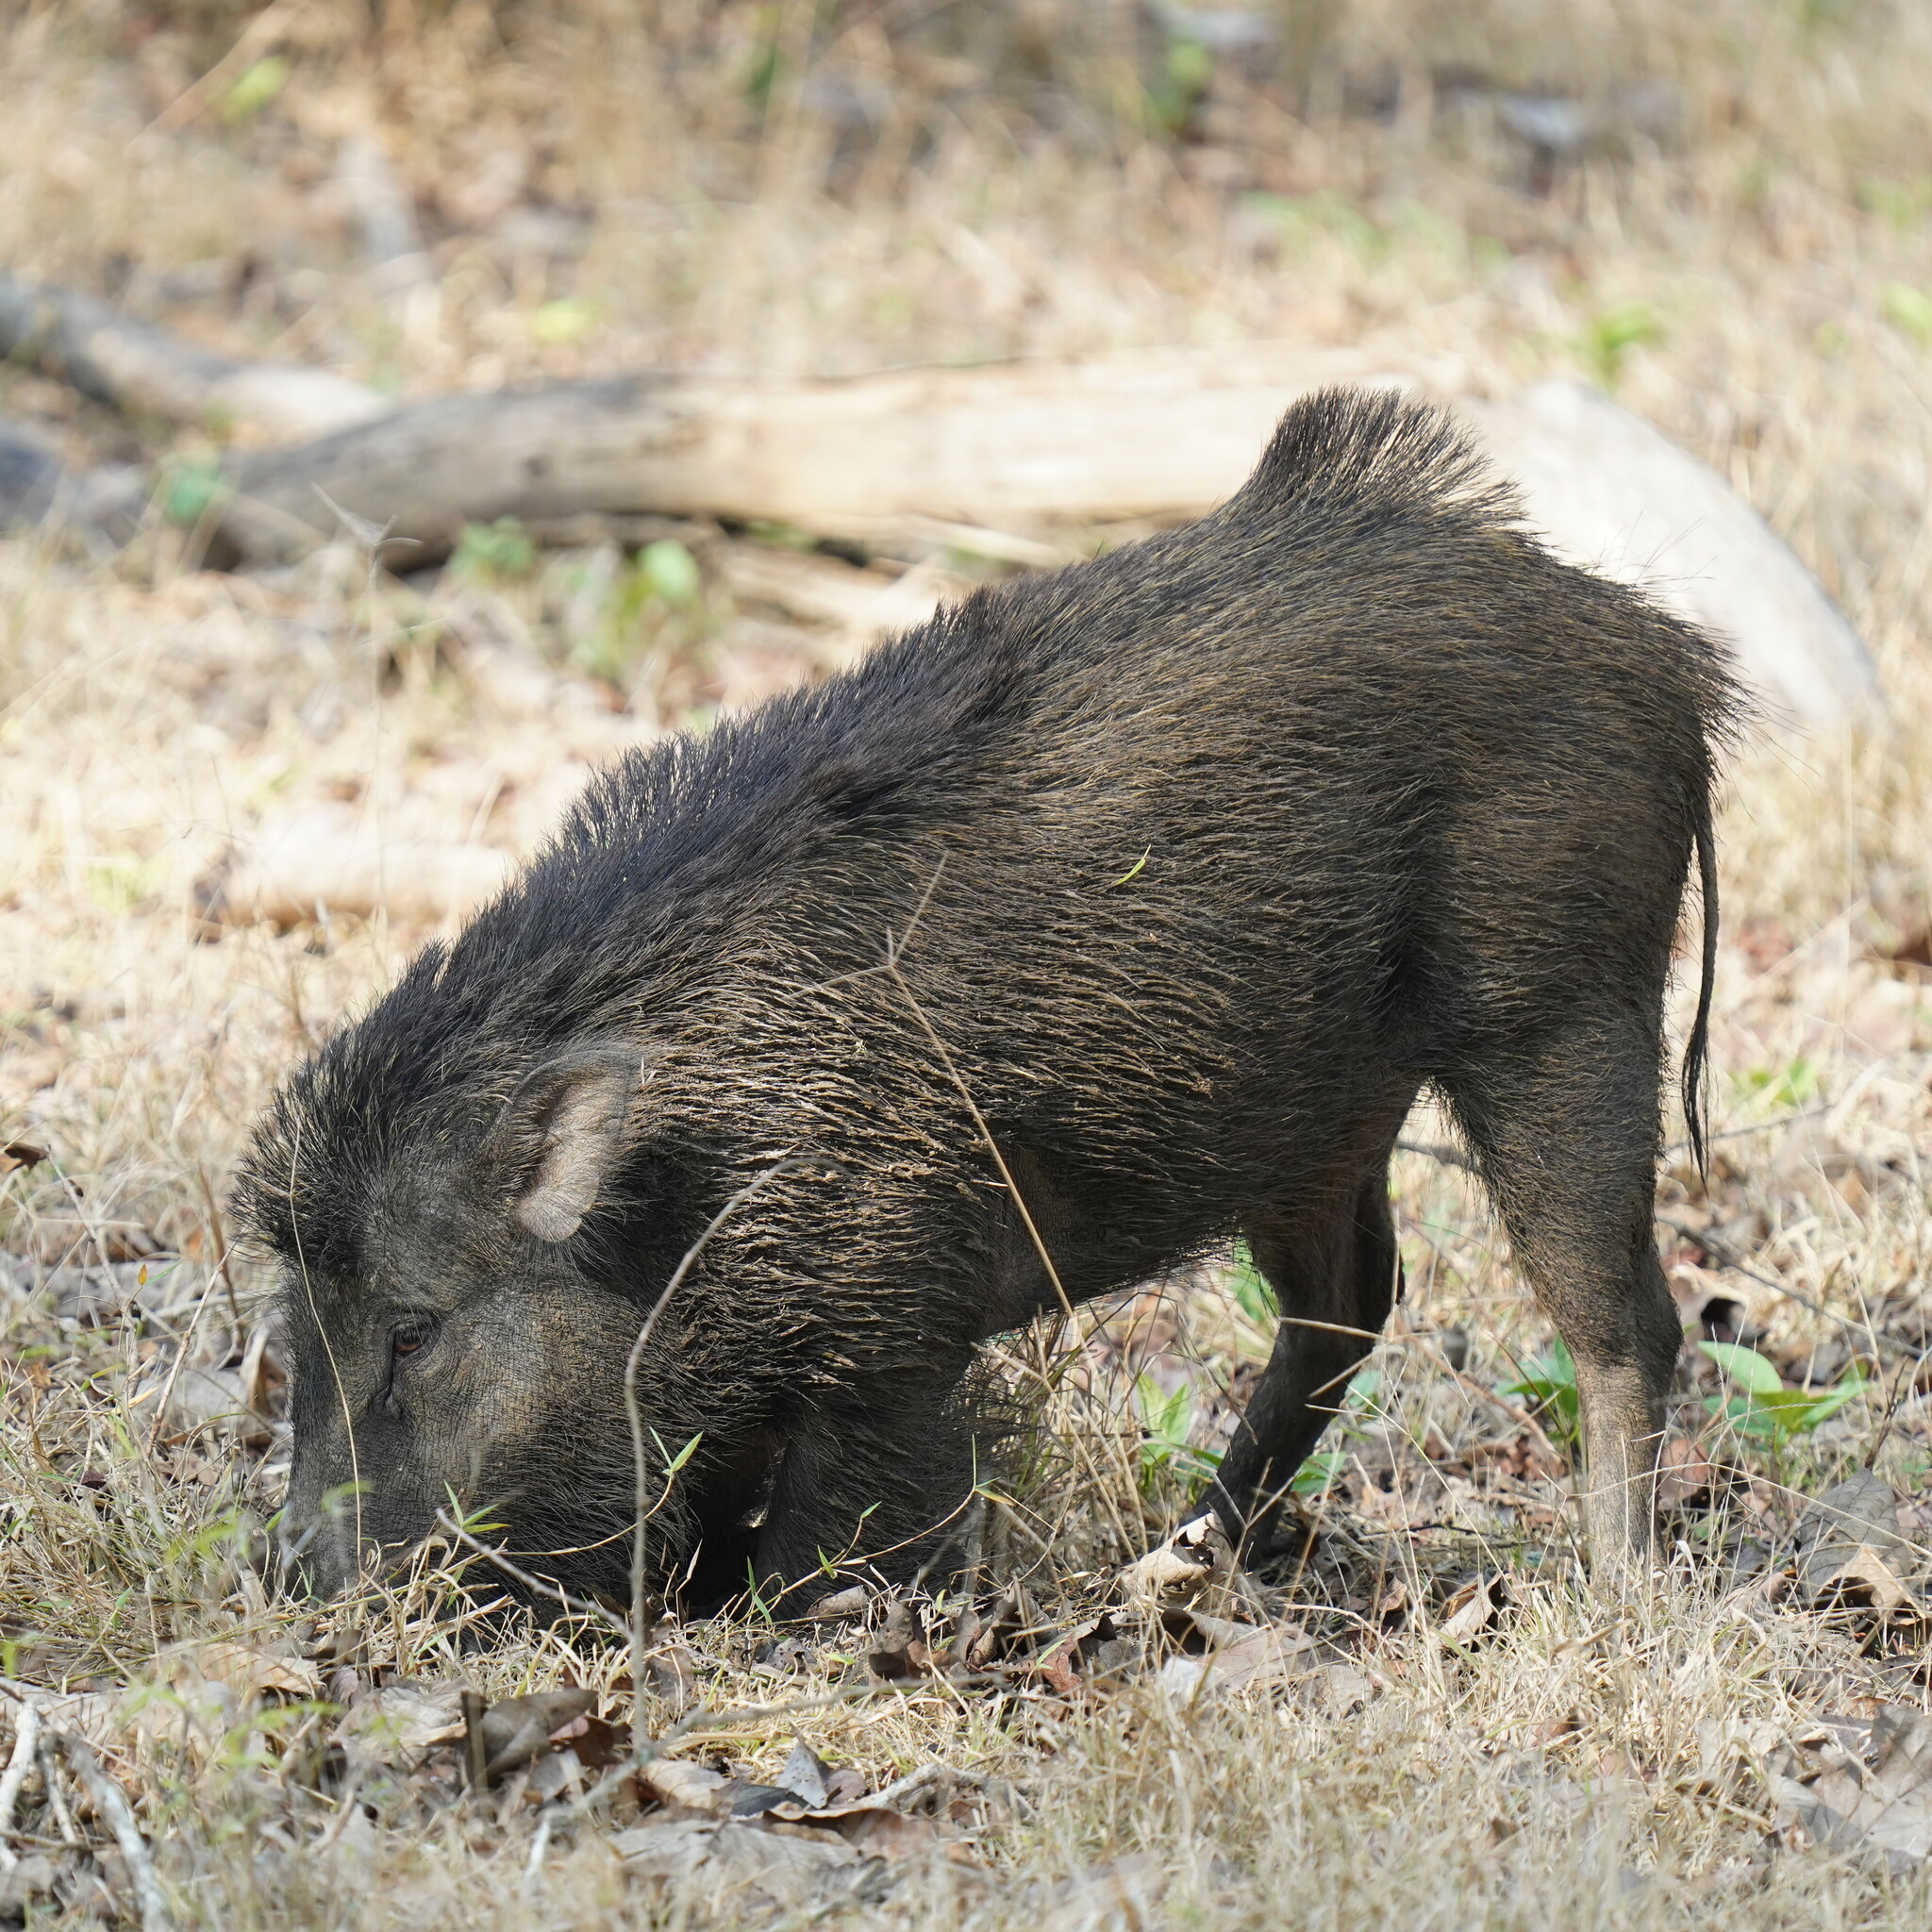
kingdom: Animalia
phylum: Chordata
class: Mammalia
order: Artiodactyla
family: Suidae
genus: Sus
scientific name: Sus scrofa
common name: Wild boar
